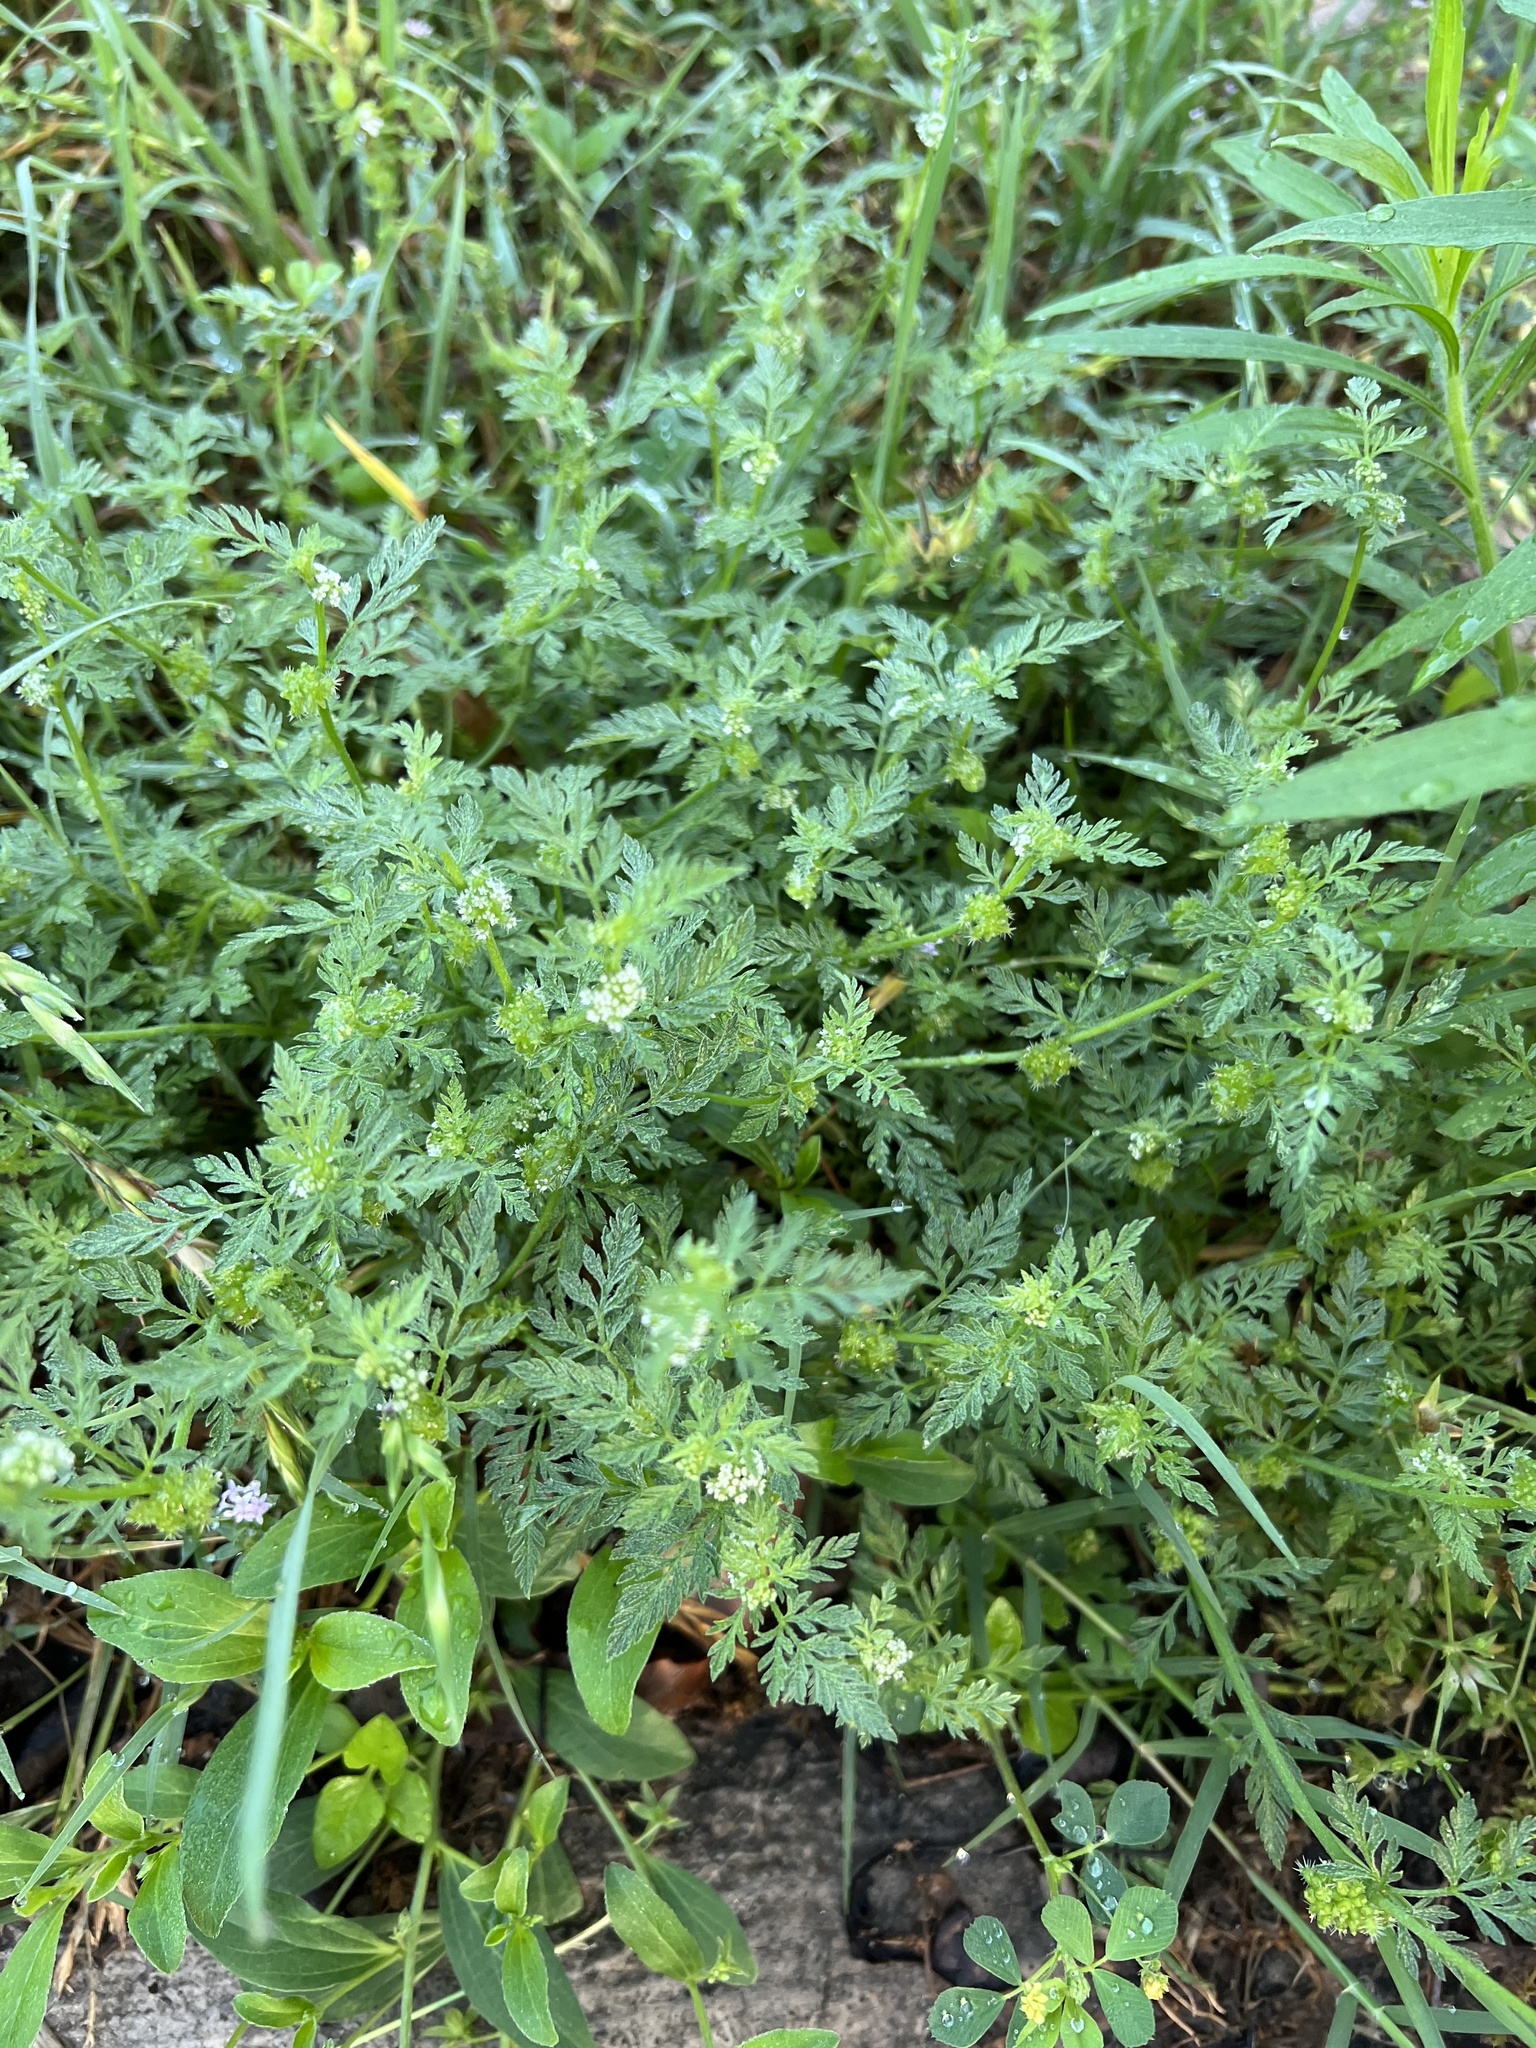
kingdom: Plantae
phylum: Tracheophyta
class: Magnoliopsida
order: Apiales
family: Apiaceae
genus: Torilis
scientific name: Torilis nodosa
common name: Knotted hedge-parsley
